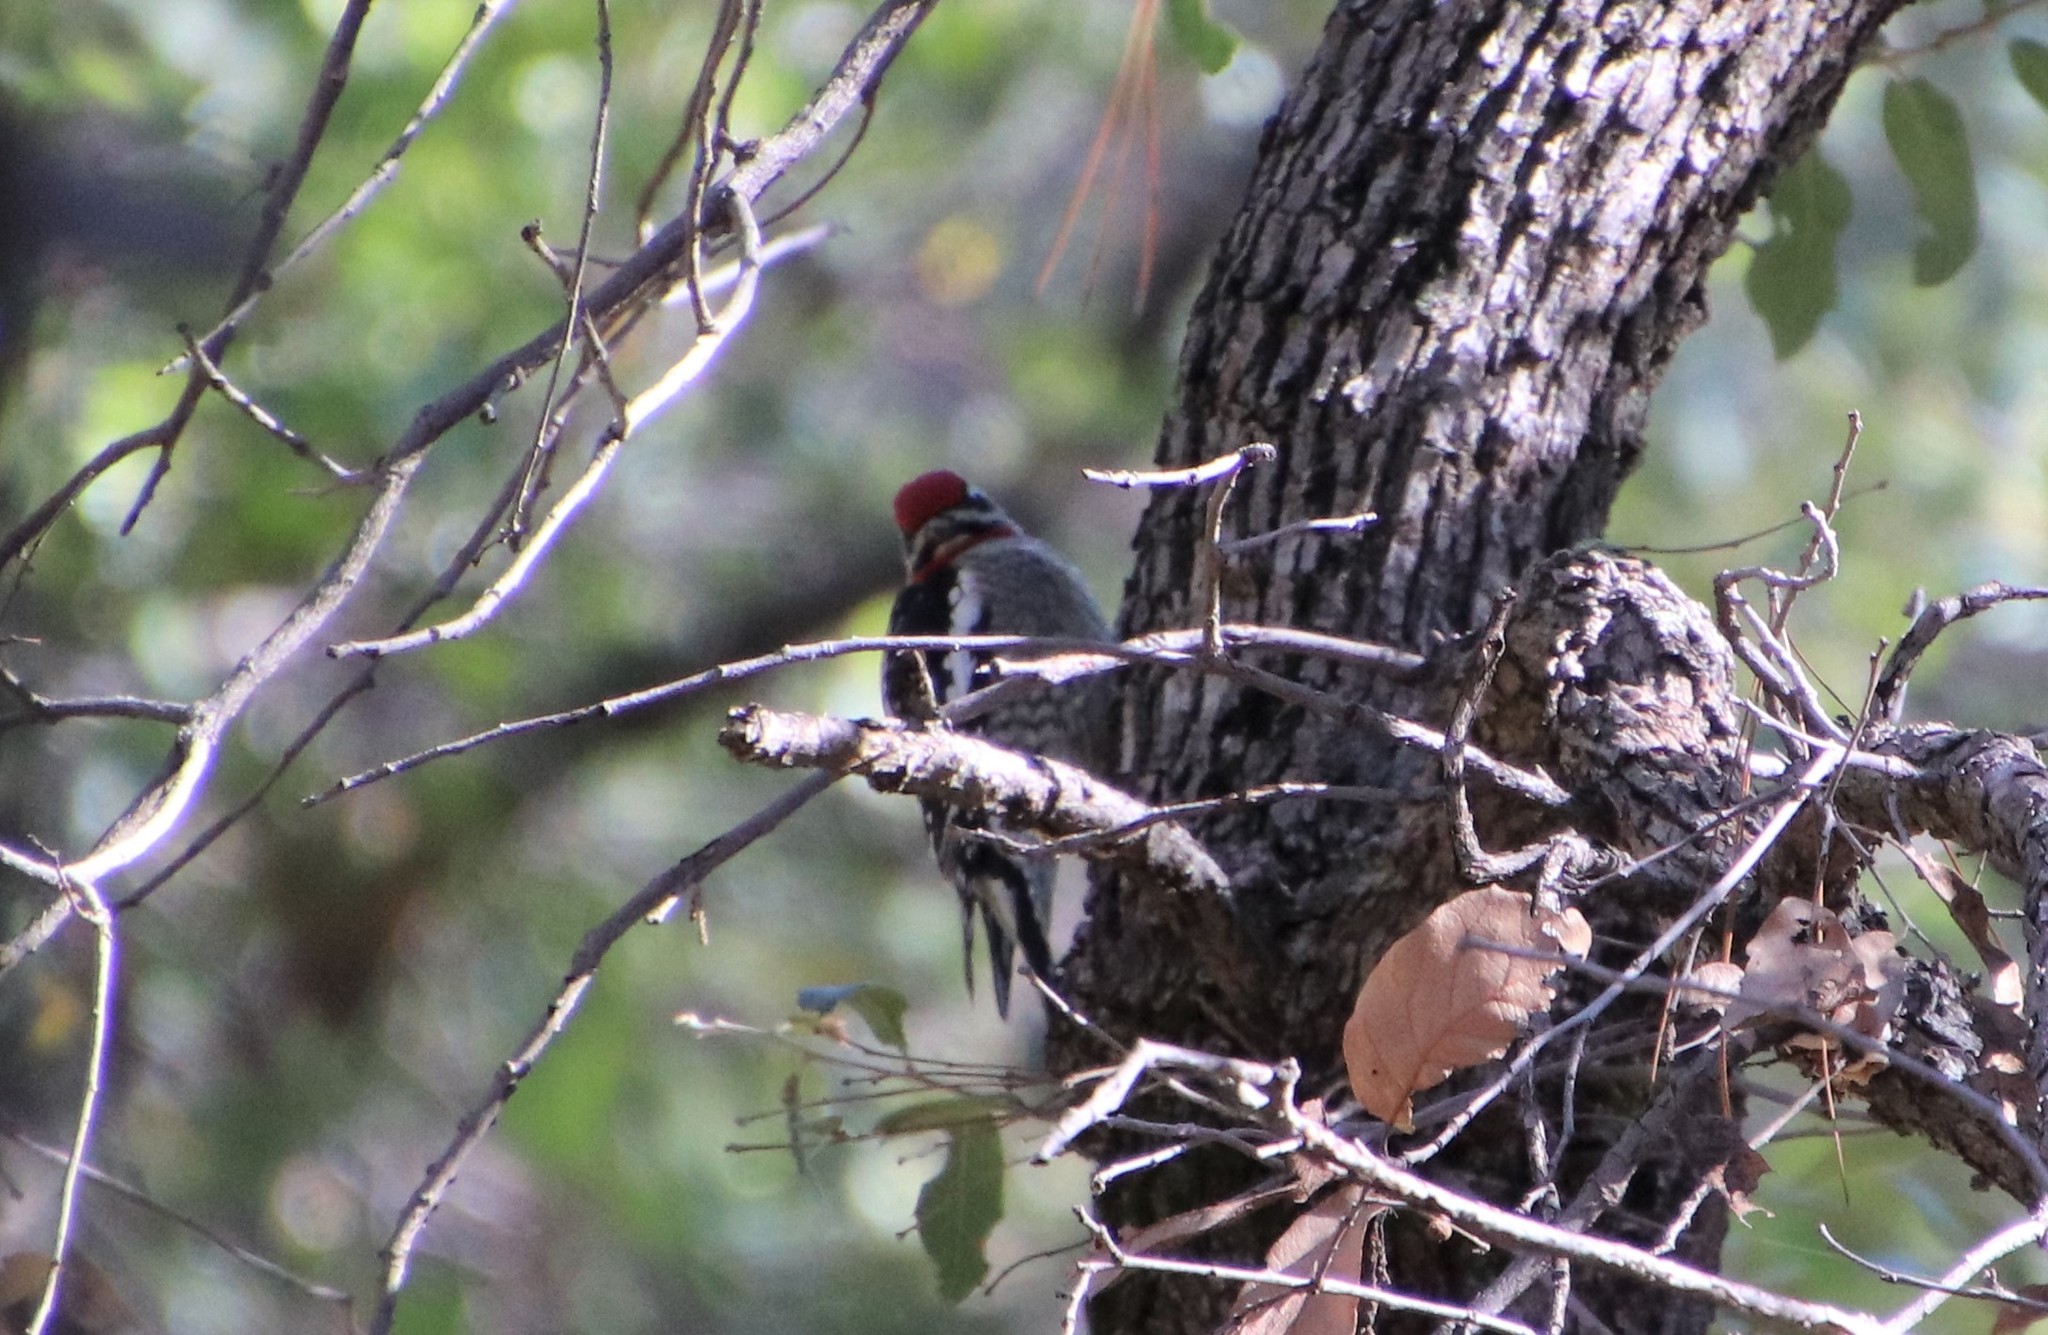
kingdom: Animalia
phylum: Chordata
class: Aves
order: Piciformes
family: Picidae
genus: Sphyrapicus
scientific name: Sphyrapicus nuchalis
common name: Red-naped sapsucker
